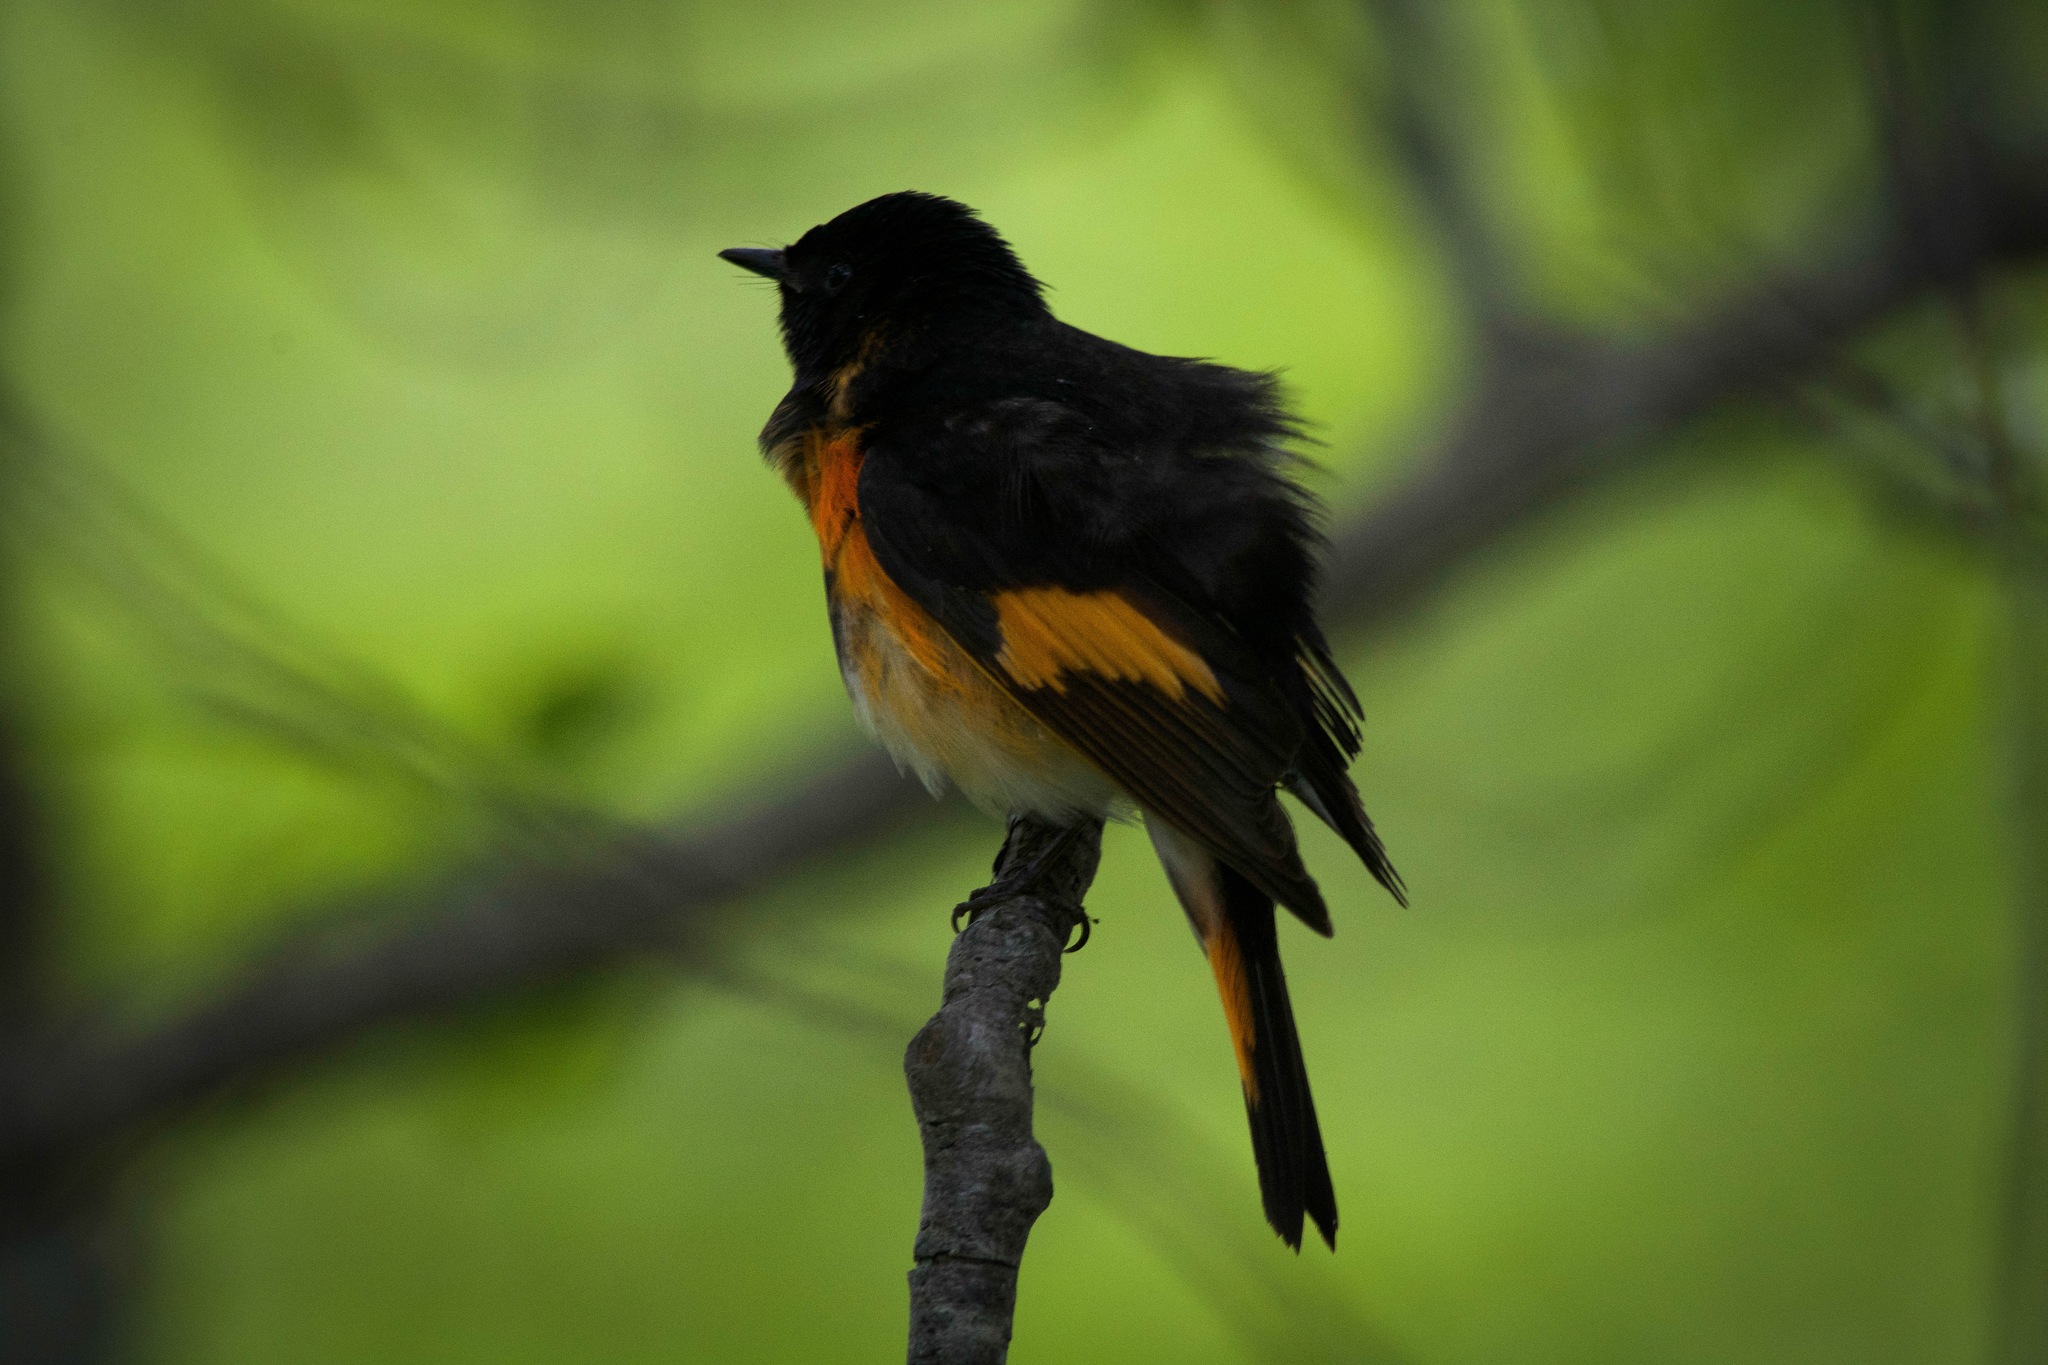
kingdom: Animalia
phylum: Chordata
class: Aves
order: Passeriformes
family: Parulidae
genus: Setophaga
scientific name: Setophaga ruticilla
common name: American redstart
